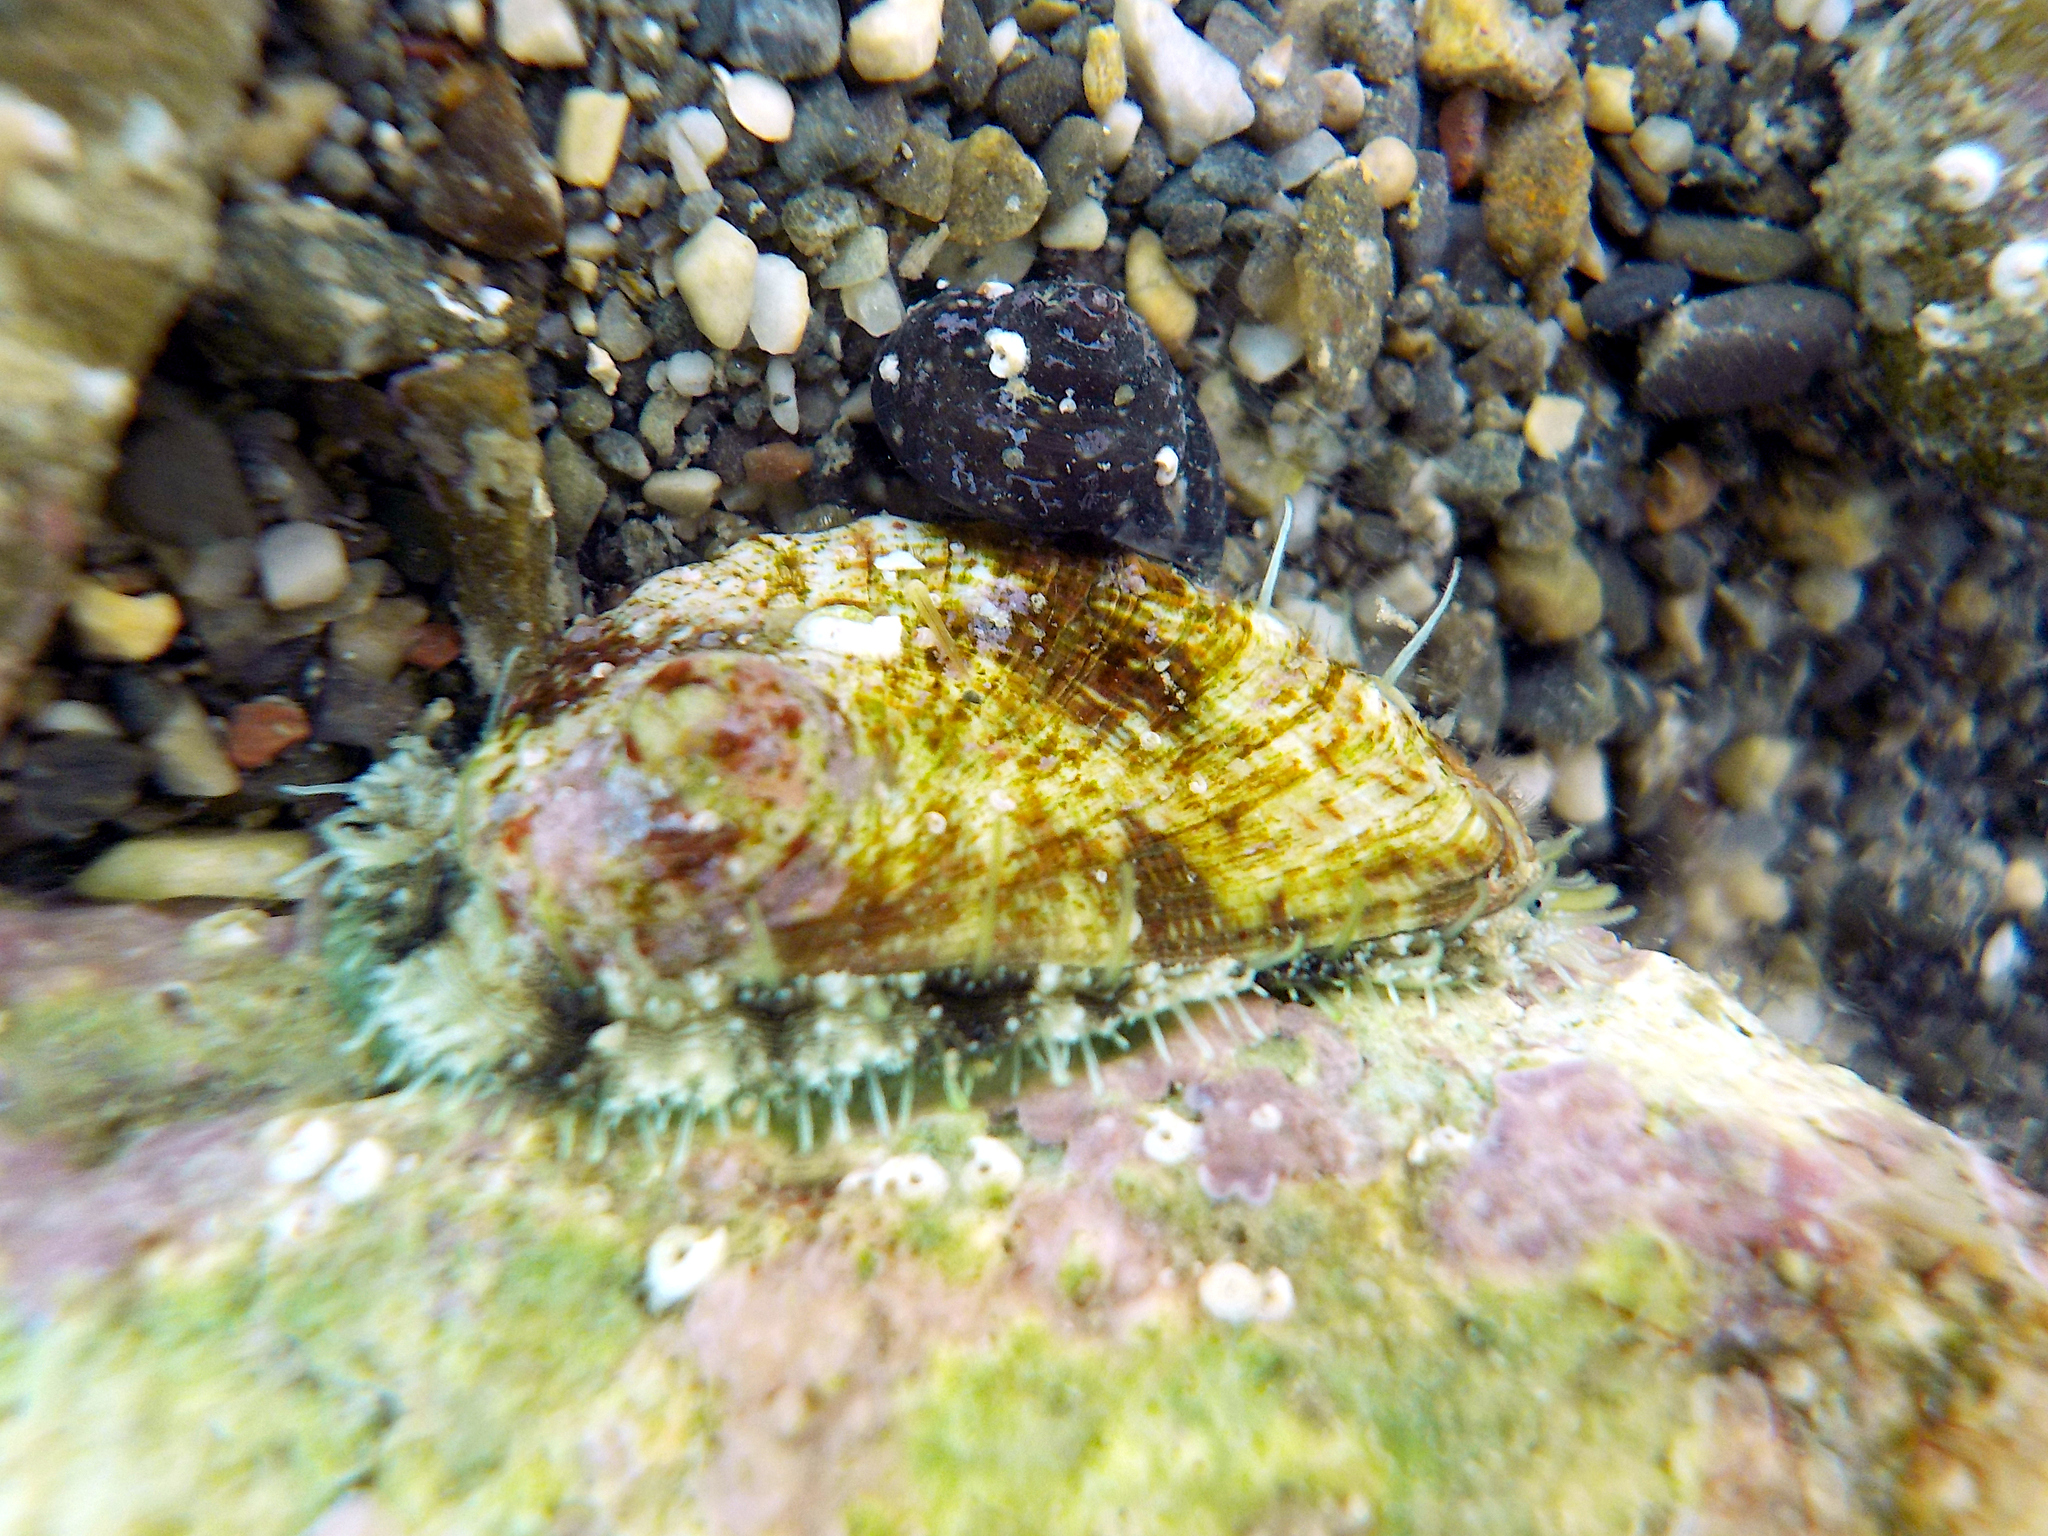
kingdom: Animalia
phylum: Mollusca
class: Gastropoda
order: Lepetellida
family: Haliotidae
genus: Haliotis
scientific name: Haliotis tuberculata
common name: Green ormer
